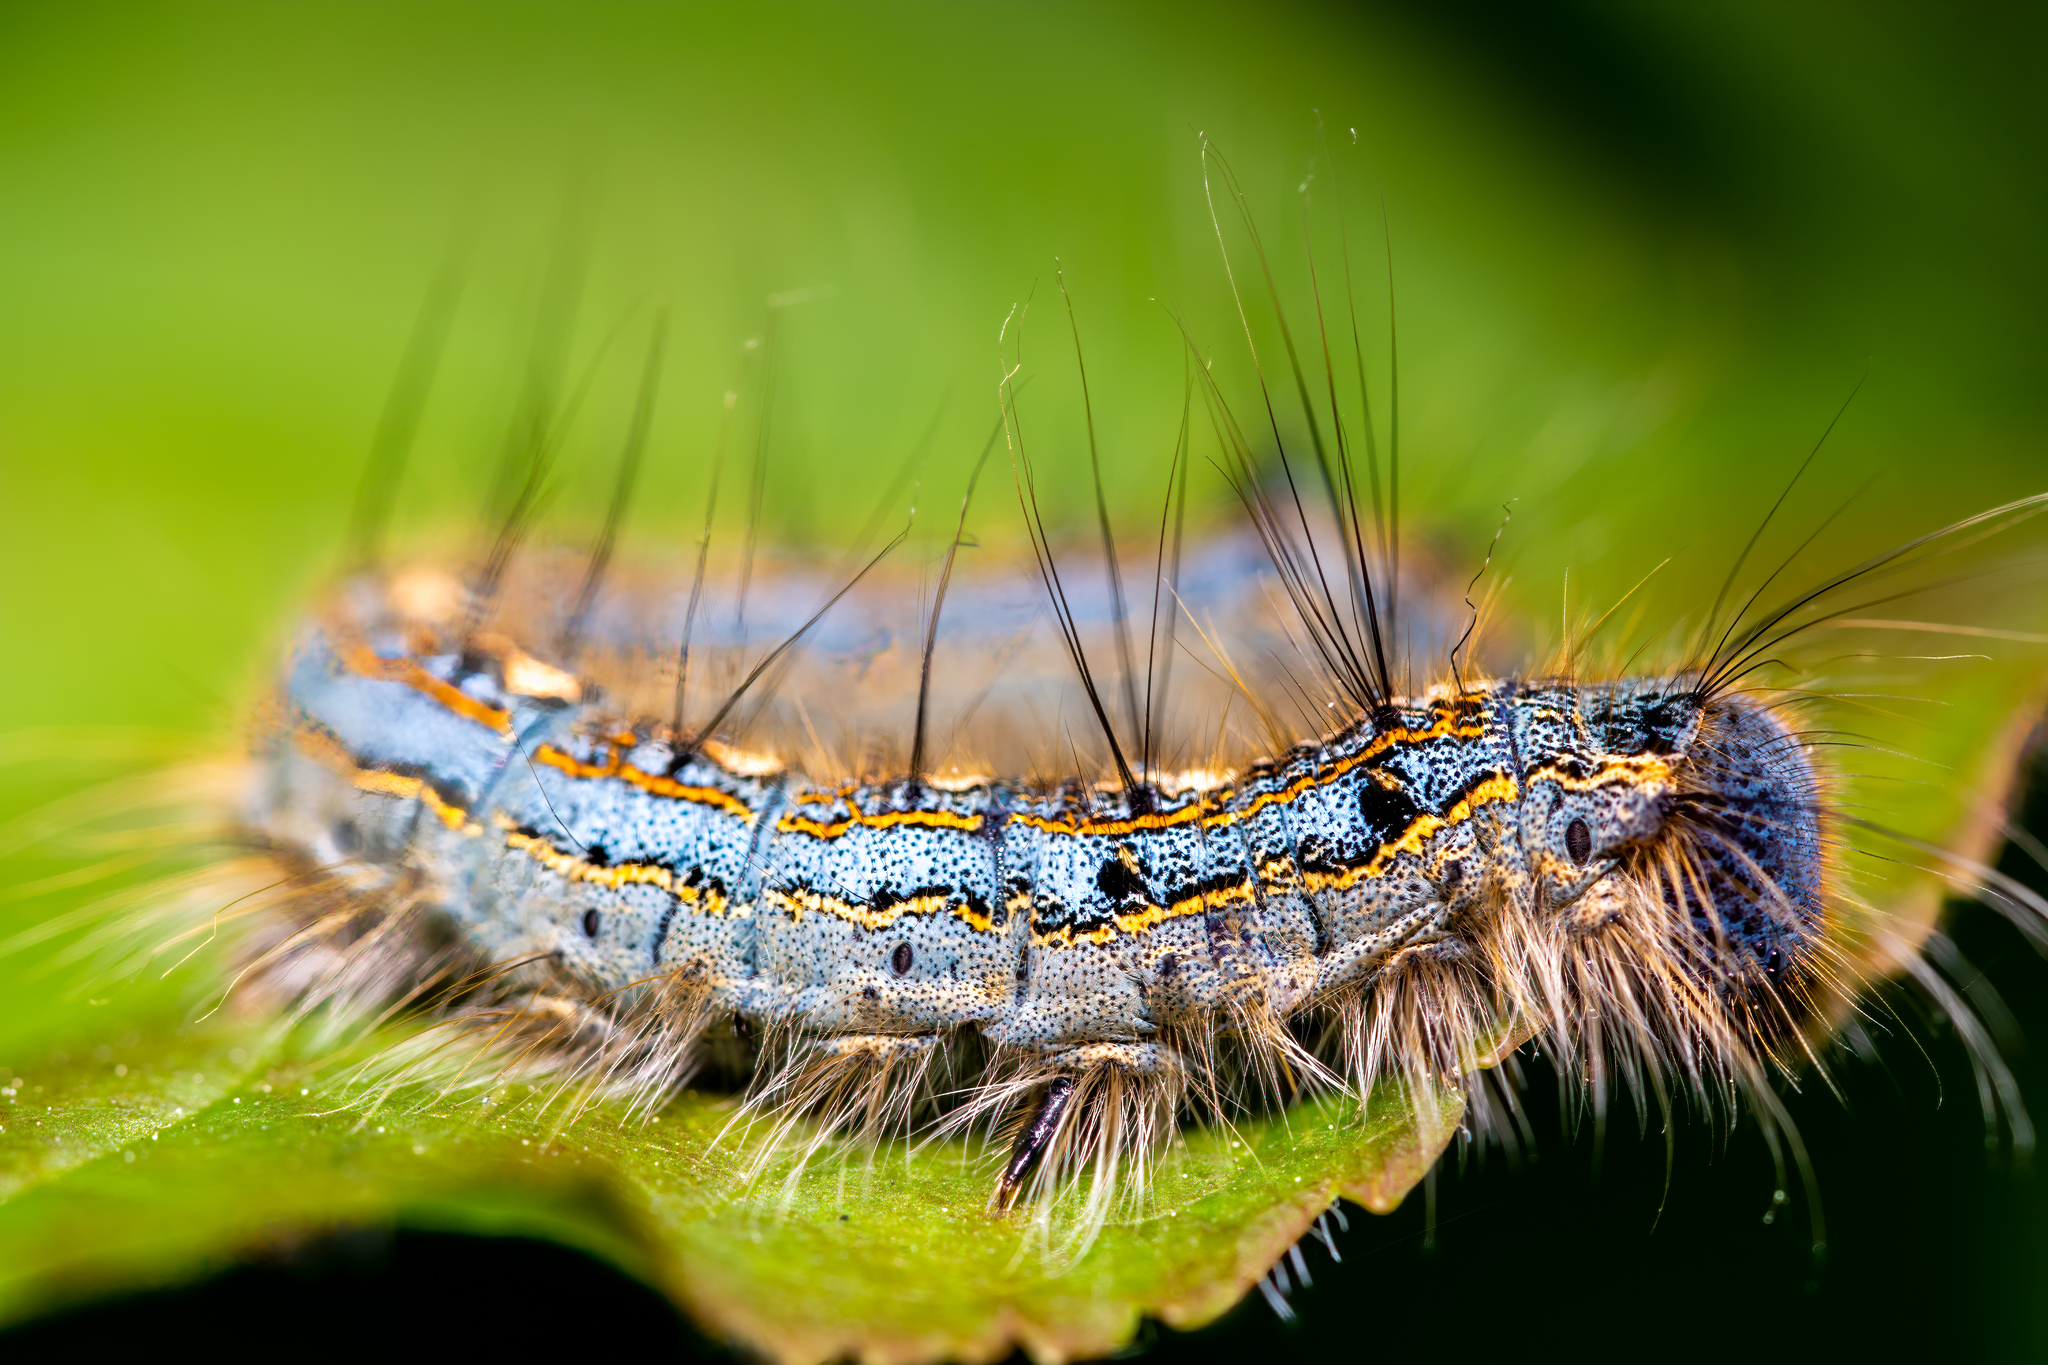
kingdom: Animalia
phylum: Arthropoda
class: Insecta
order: Lepidoptera
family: Lasiocampidae
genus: Malacosoma
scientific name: Malacosoma disstria
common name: Forest tent caterpillar
